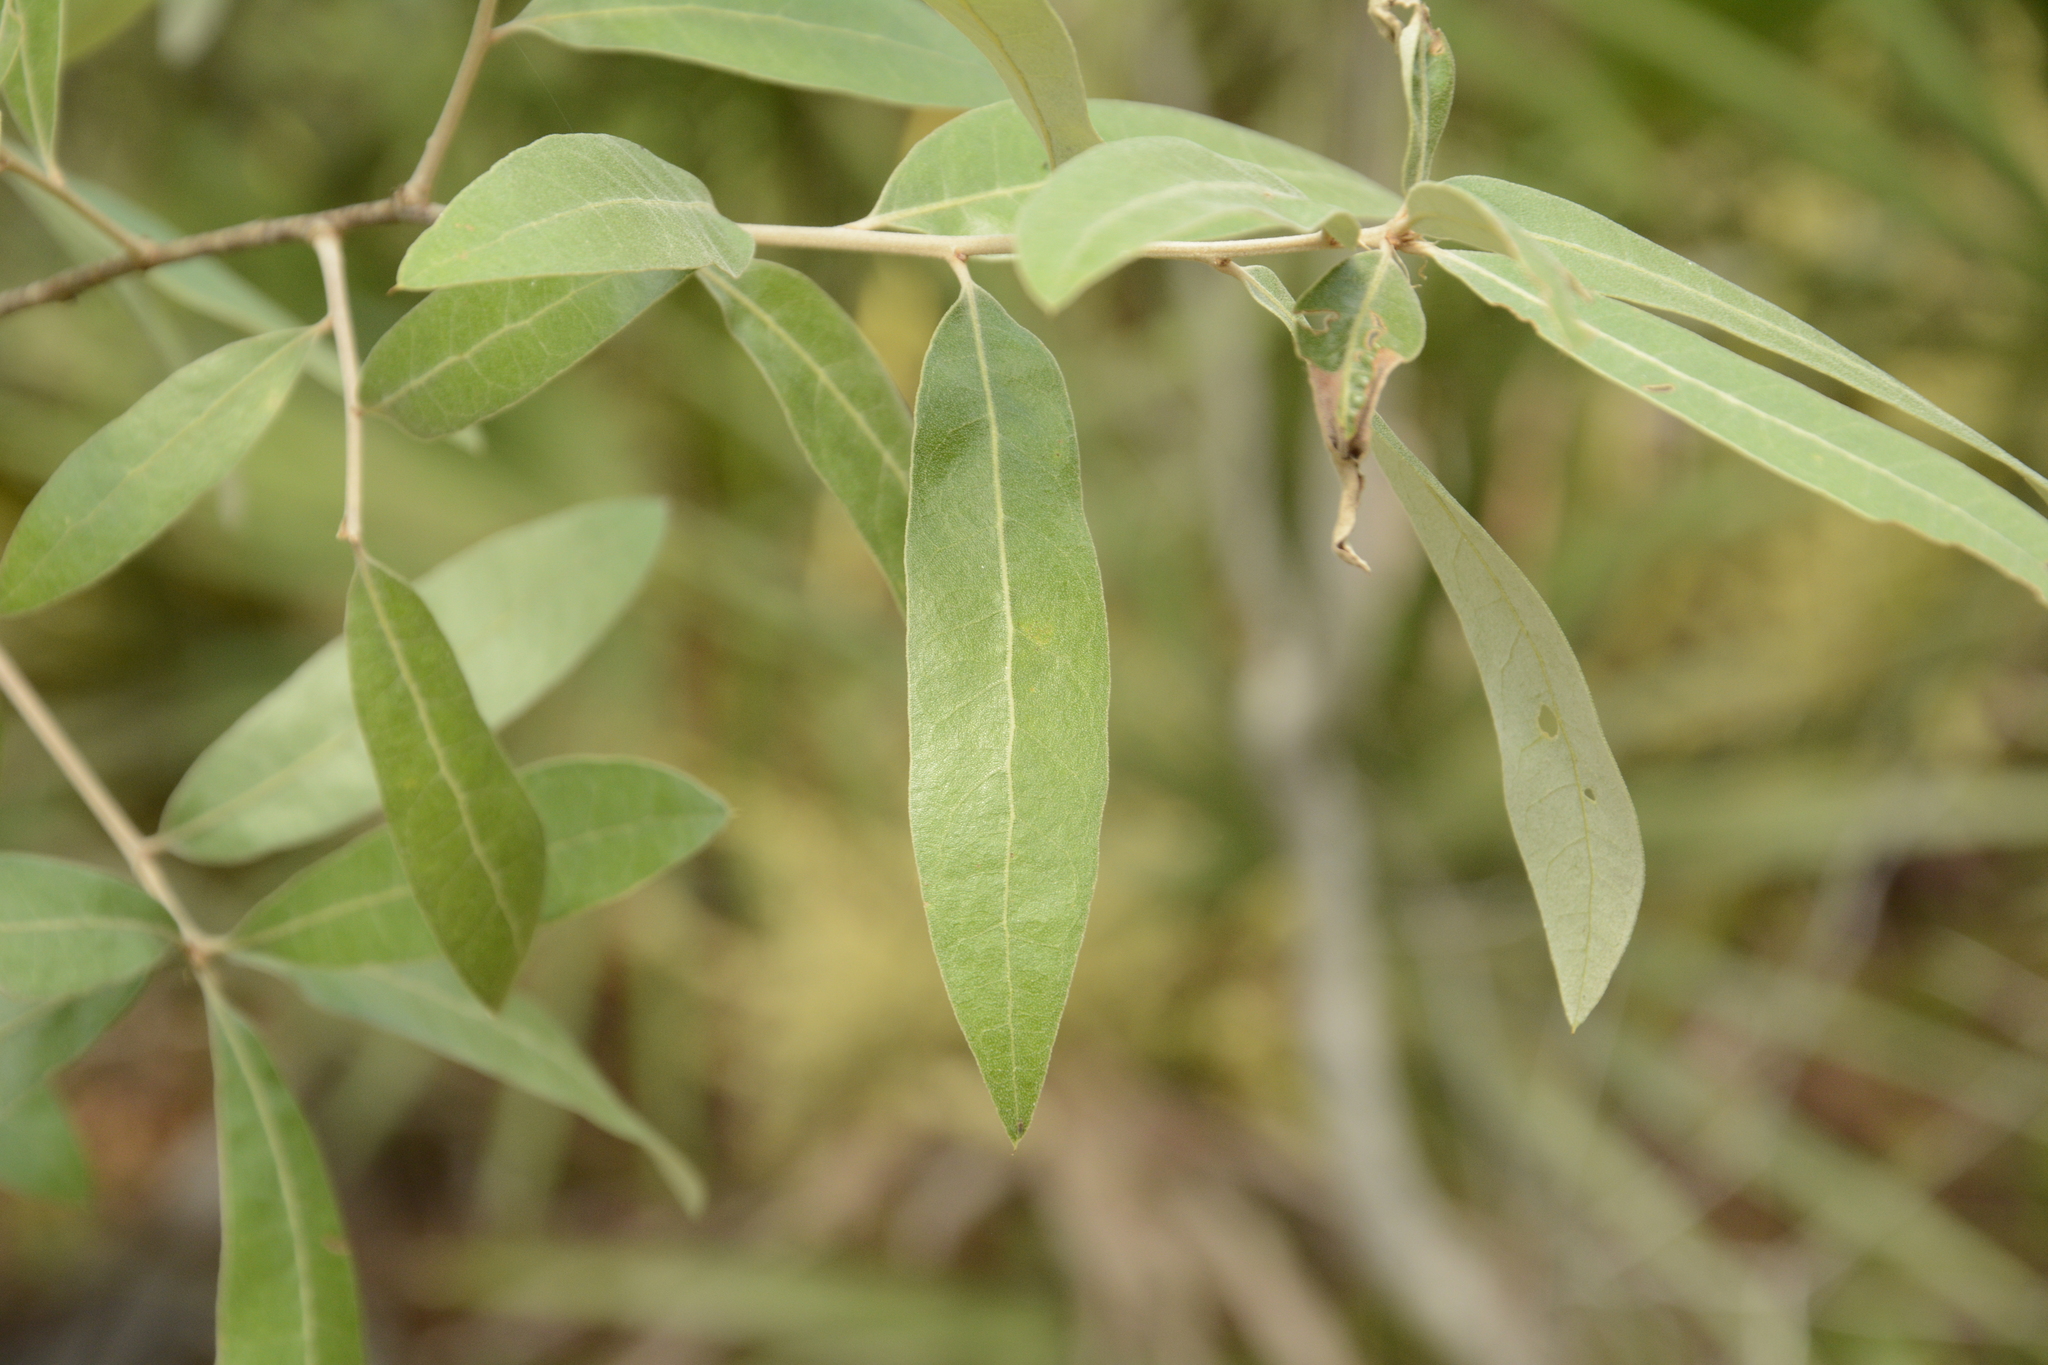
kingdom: Plantae
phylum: Tracheophyta
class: Magnoliopsida
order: Fagales
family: Fagaceae
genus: Quercus
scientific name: Quercus incana
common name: Bluejack oak
